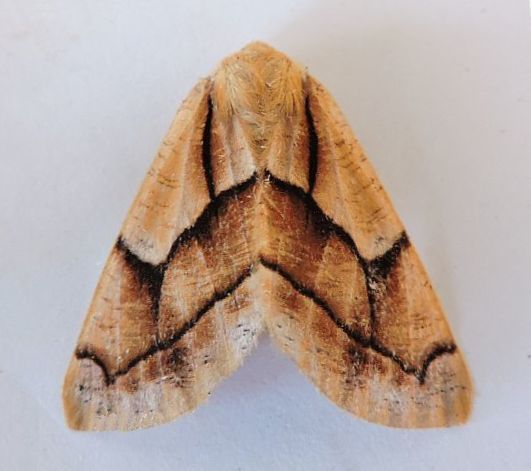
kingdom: Animalia
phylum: Arthropoda
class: Insecta
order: Lepidoptera
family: Geometridae
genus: Snowia
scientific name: Snowia montanaria
